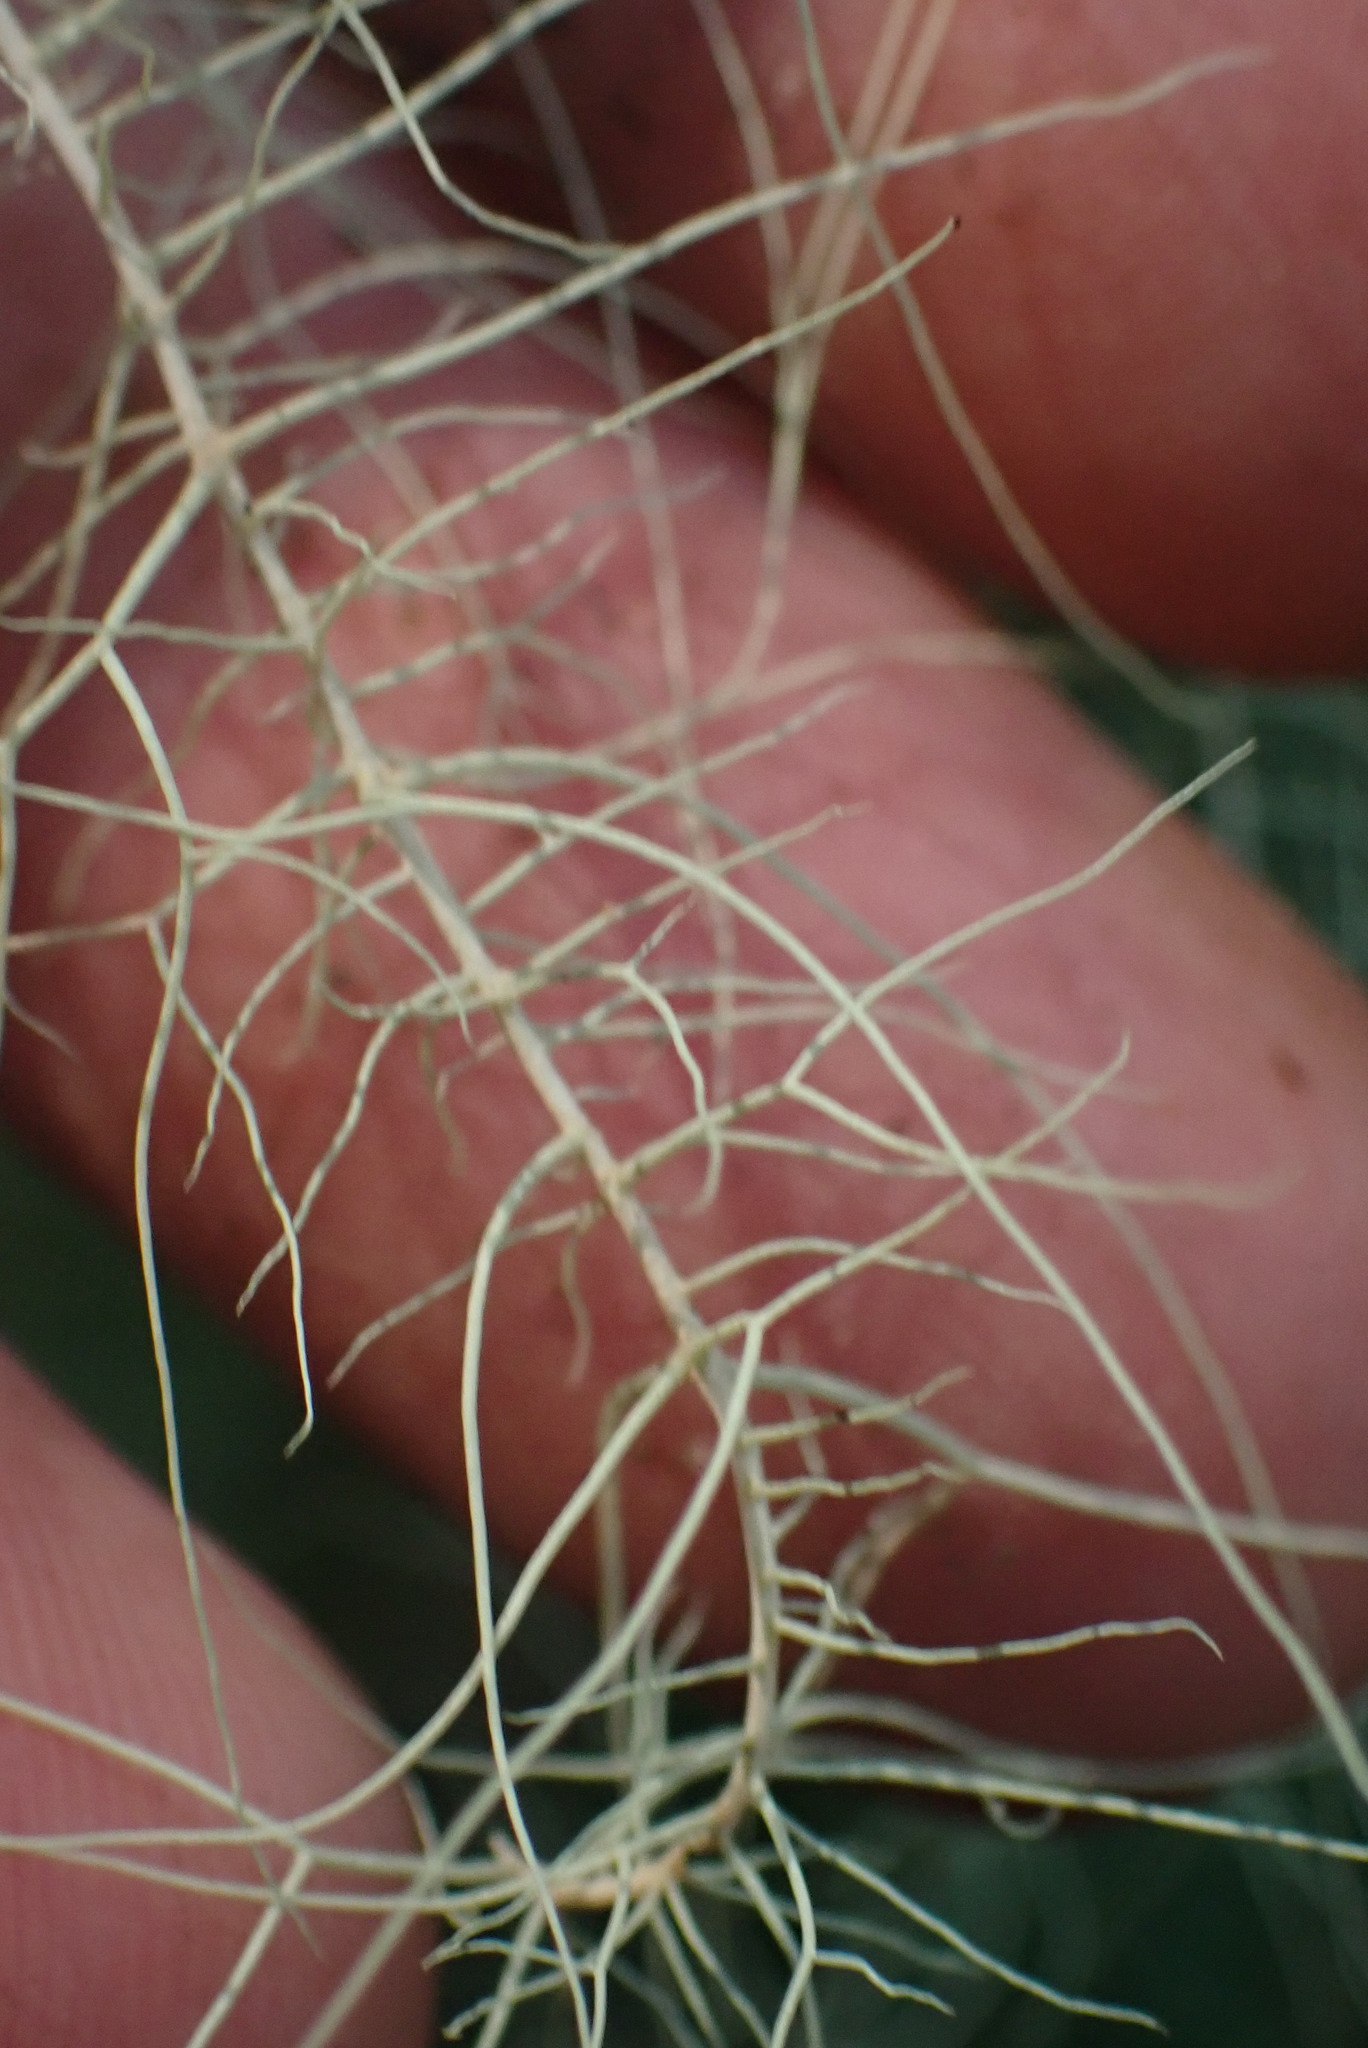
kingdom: Fungi
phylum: Ascomycota
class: Lecanoromycetes
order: Lecanorales
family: Parmeliaceae
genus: Dolichousnea
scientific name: Dolichousnea longissima
